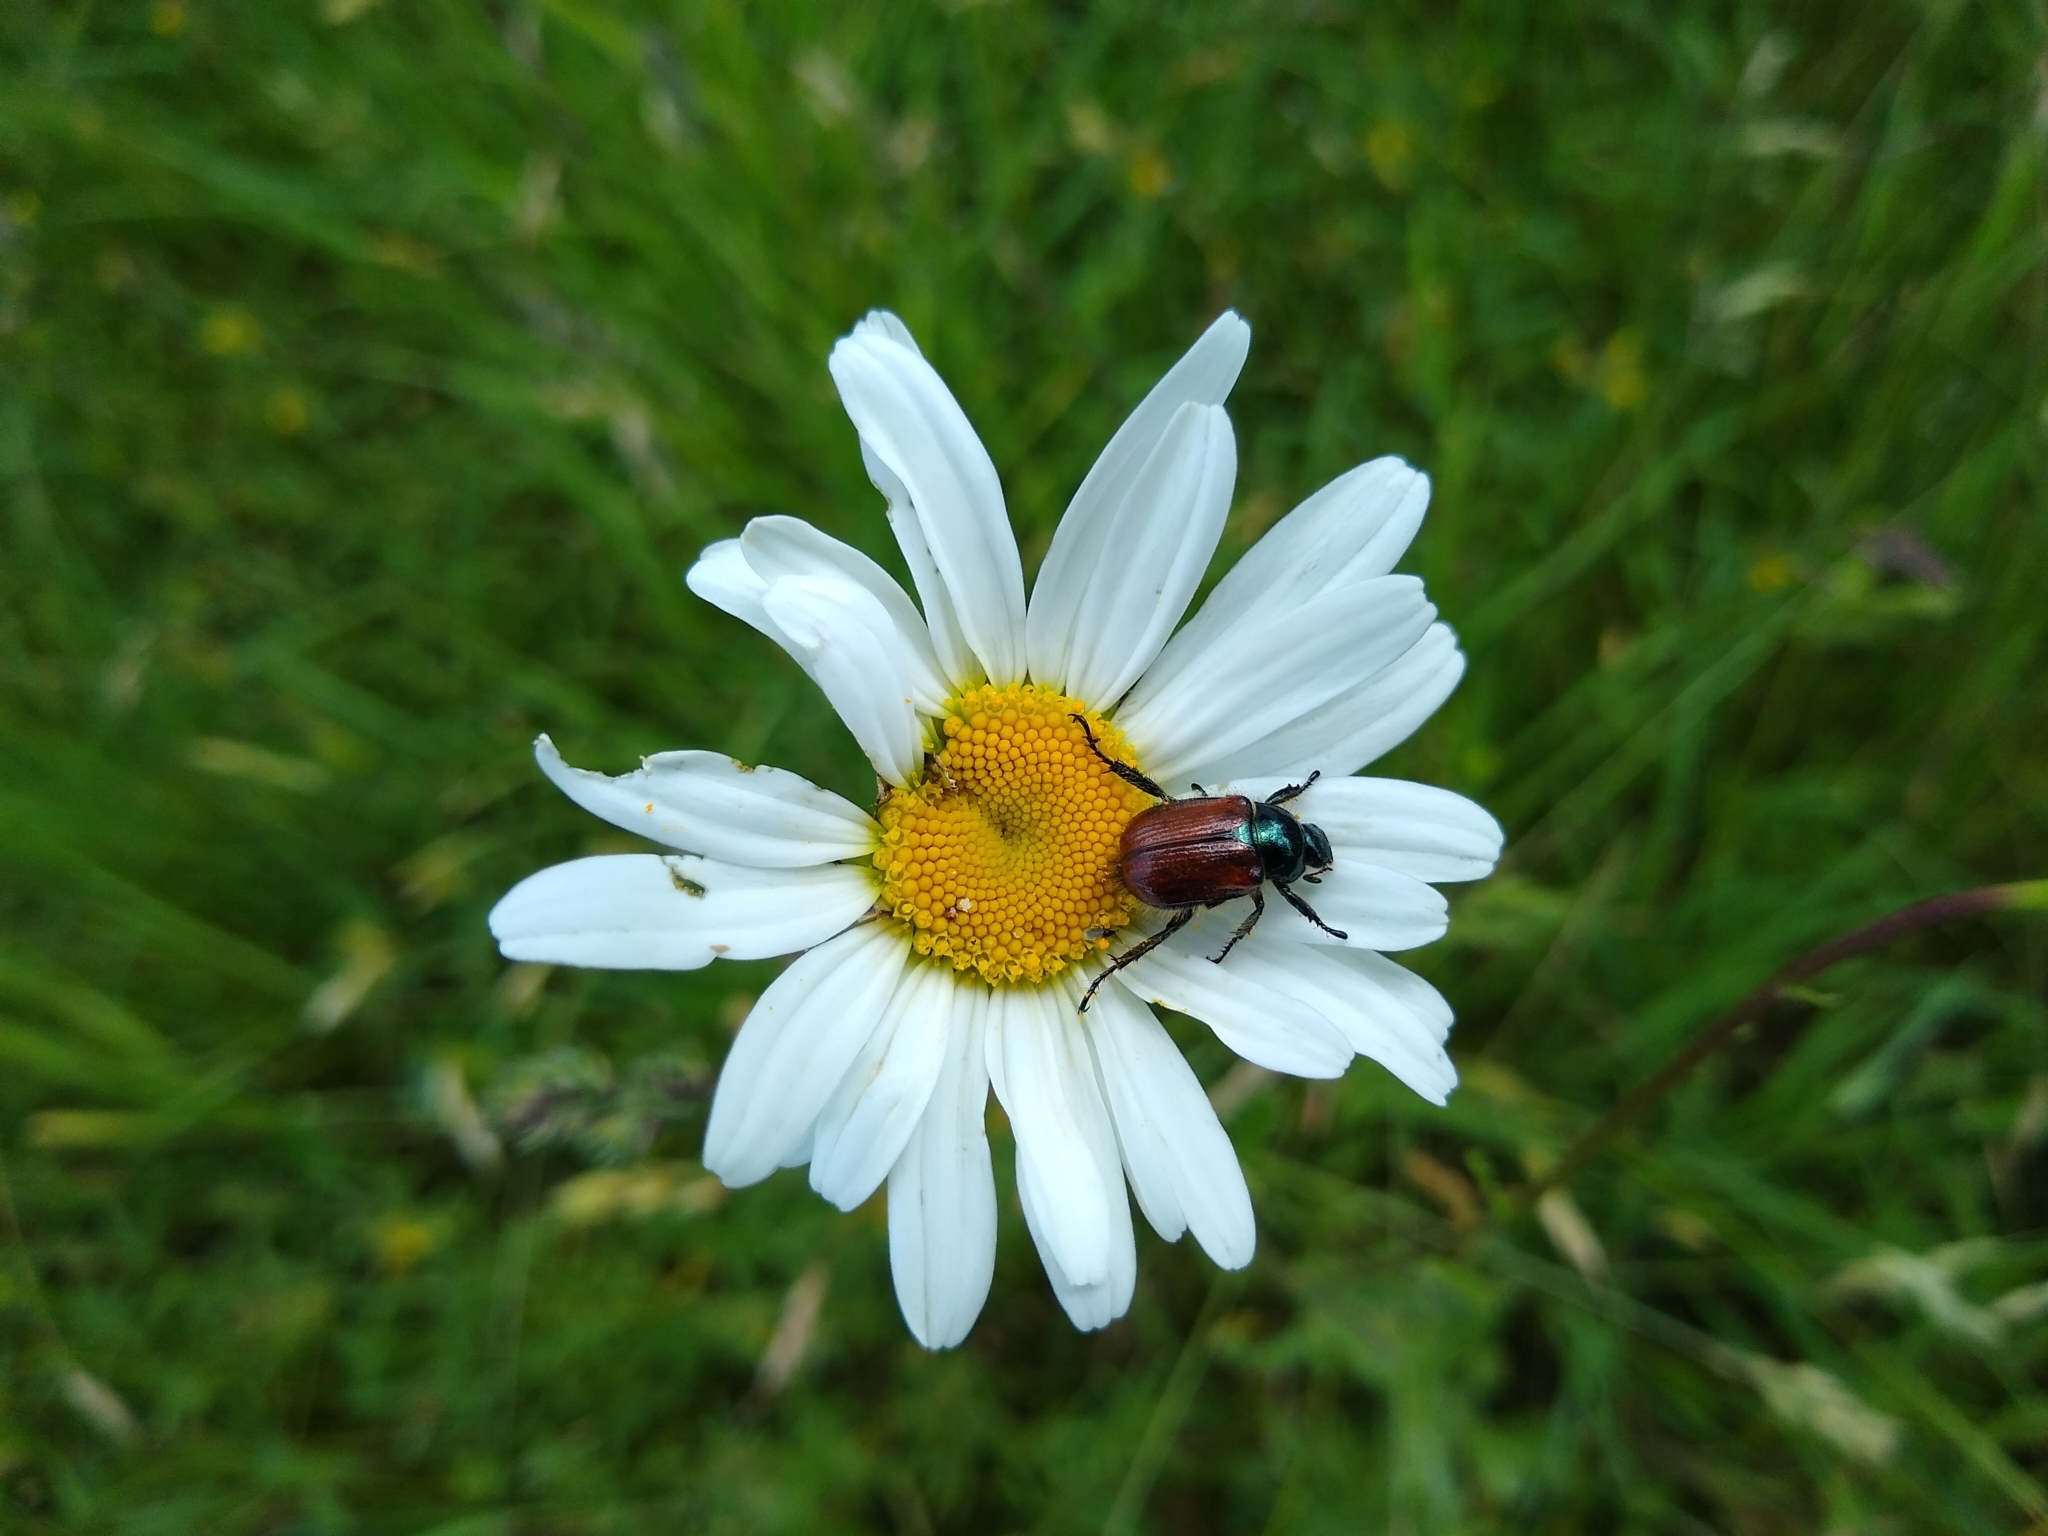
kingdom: Animalia
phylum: Arthropoda
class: Insecta
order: Coleoptera
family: Scarabaeidae
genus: Phyllopertha
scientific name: Phyllopertha horticola
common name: Garden chafer
